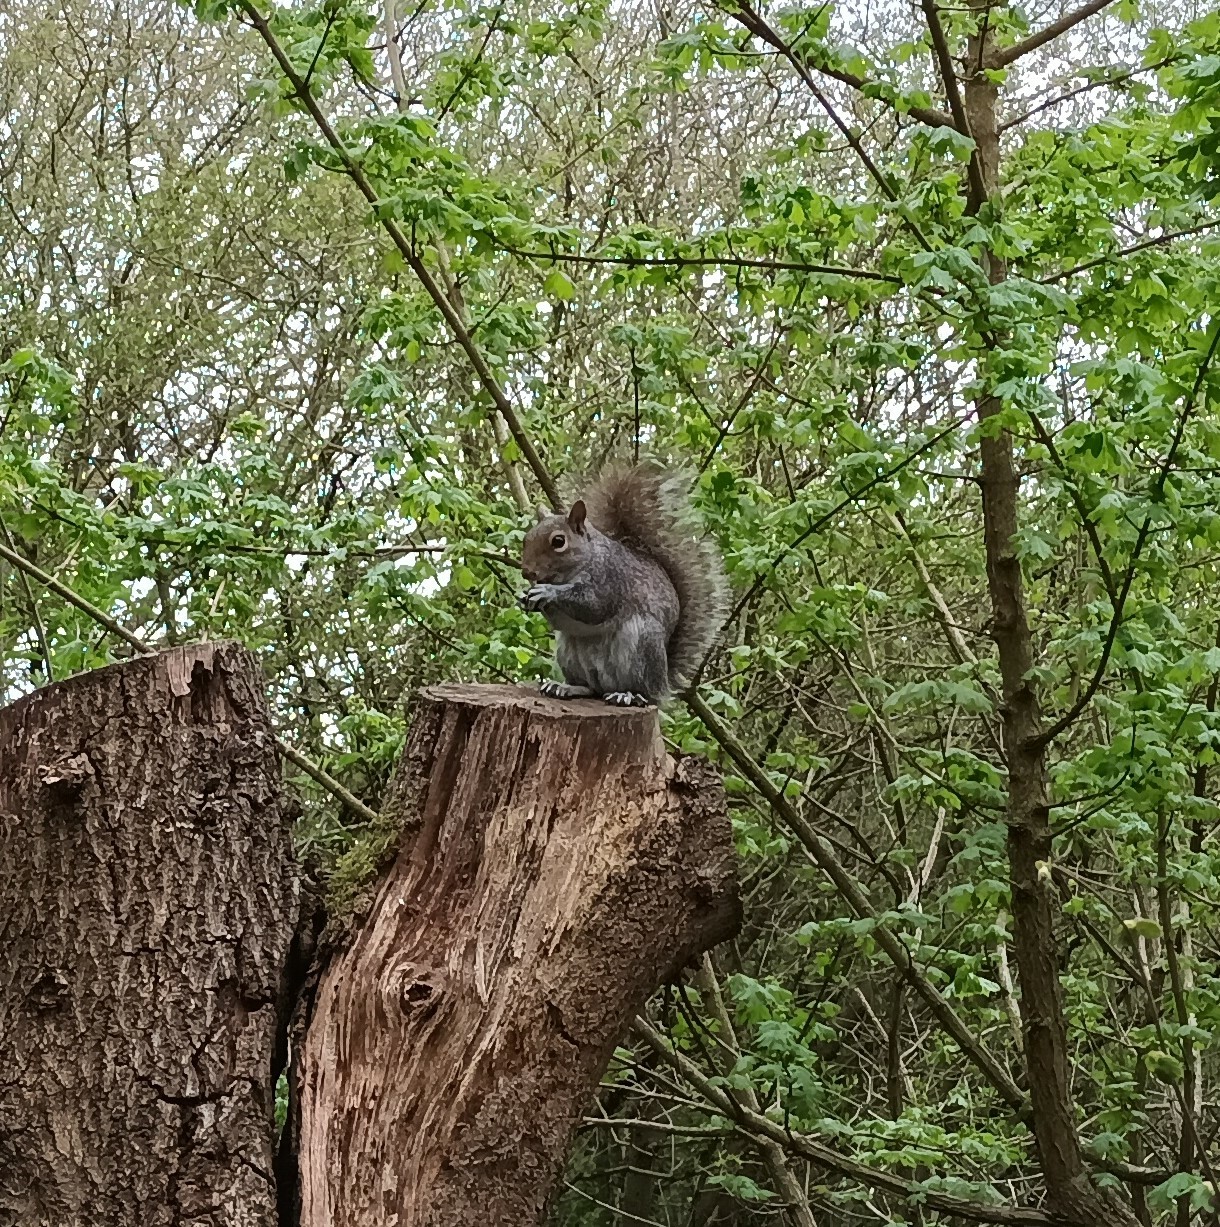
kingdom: Animalia
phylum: Chordata
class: Mammalia
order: Rodentia
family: Sciuridae
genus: Sciurus
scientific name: Sciurus carolinensis
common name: Eastern gray squirrel
